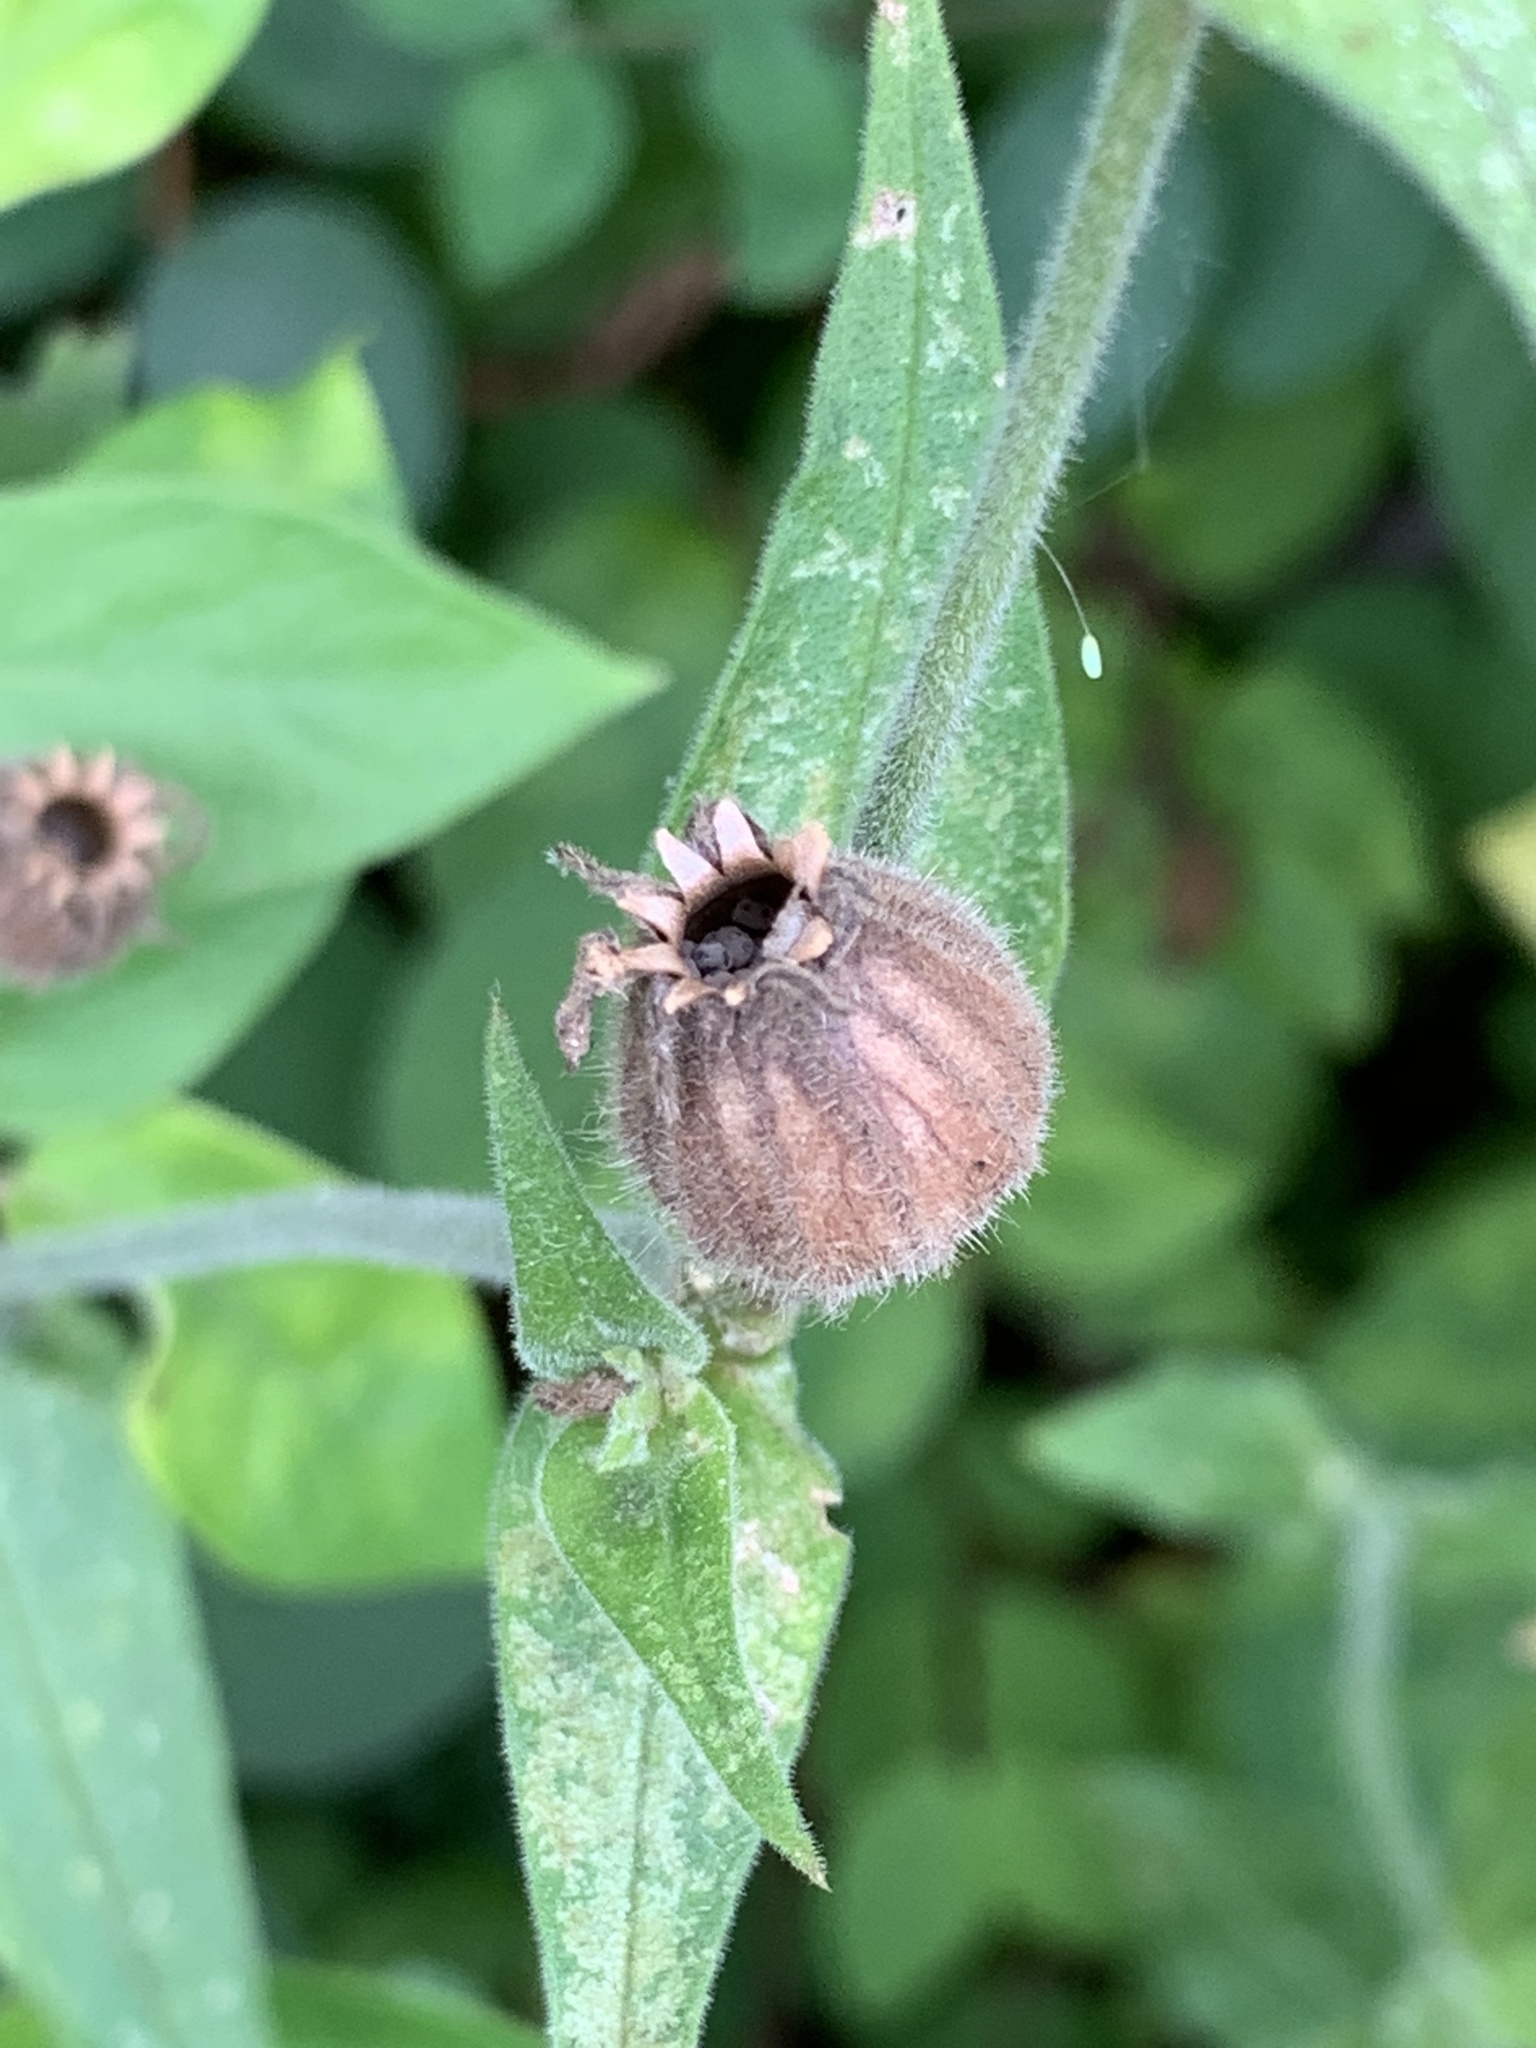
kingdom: Plantae
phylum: Tracheophyta
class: Magnoliopsida
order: Caryophyllales
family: Caryophyllaceae
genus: Silene
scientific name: Silene latifolia
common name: White campion
